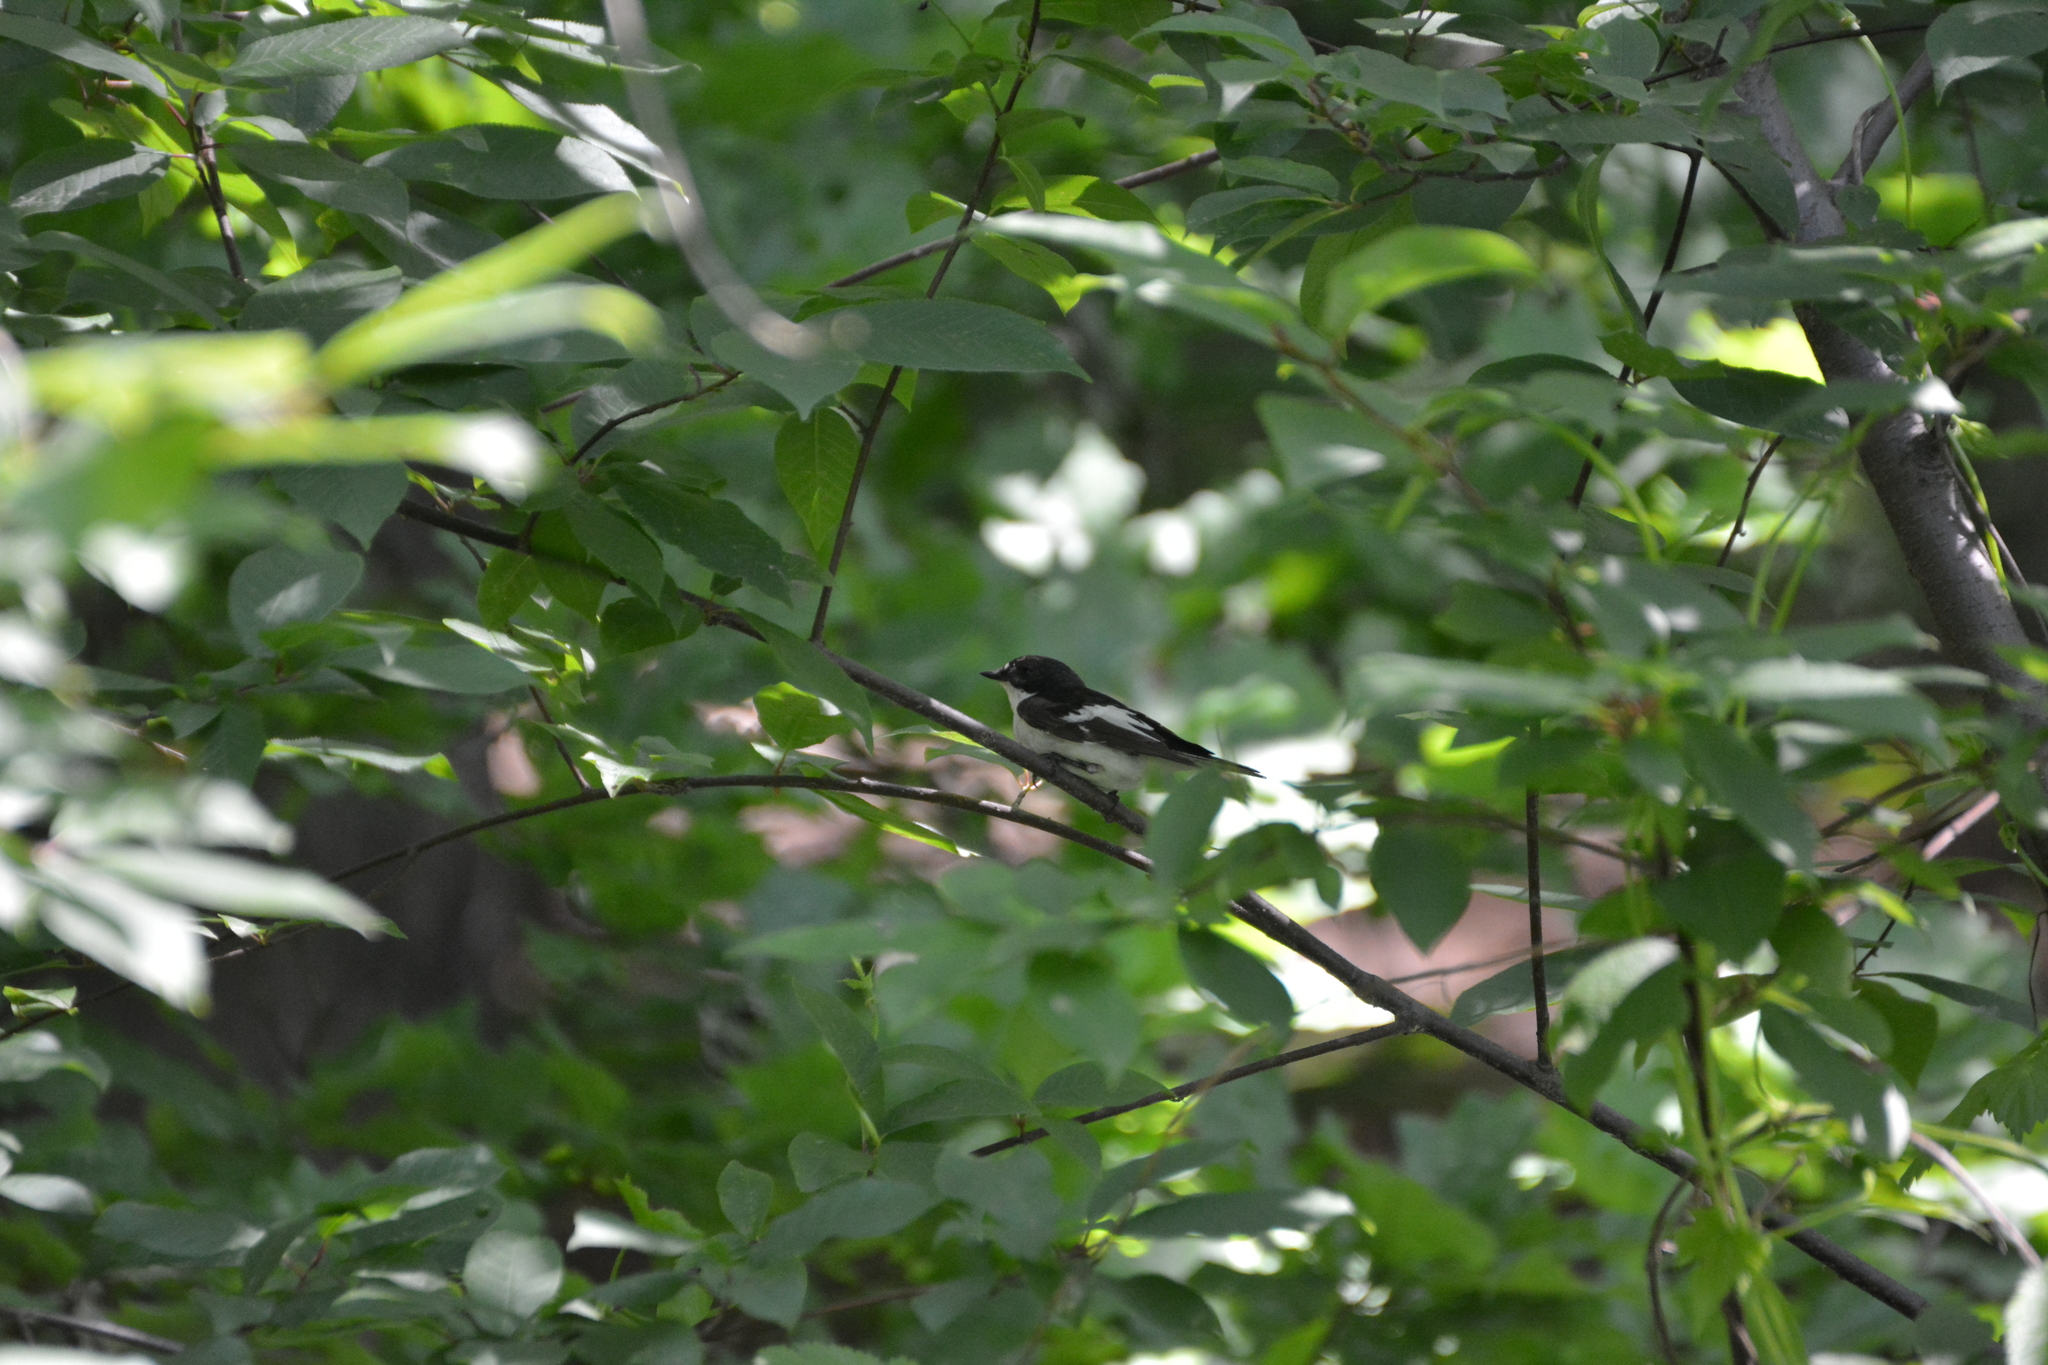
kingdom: Animalia
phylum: Chordata
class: Aves
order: Passeriformes
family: Muscicapidae
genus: Ficedula
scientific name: Ficedula hypoleuca
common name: European pied flycatcher
